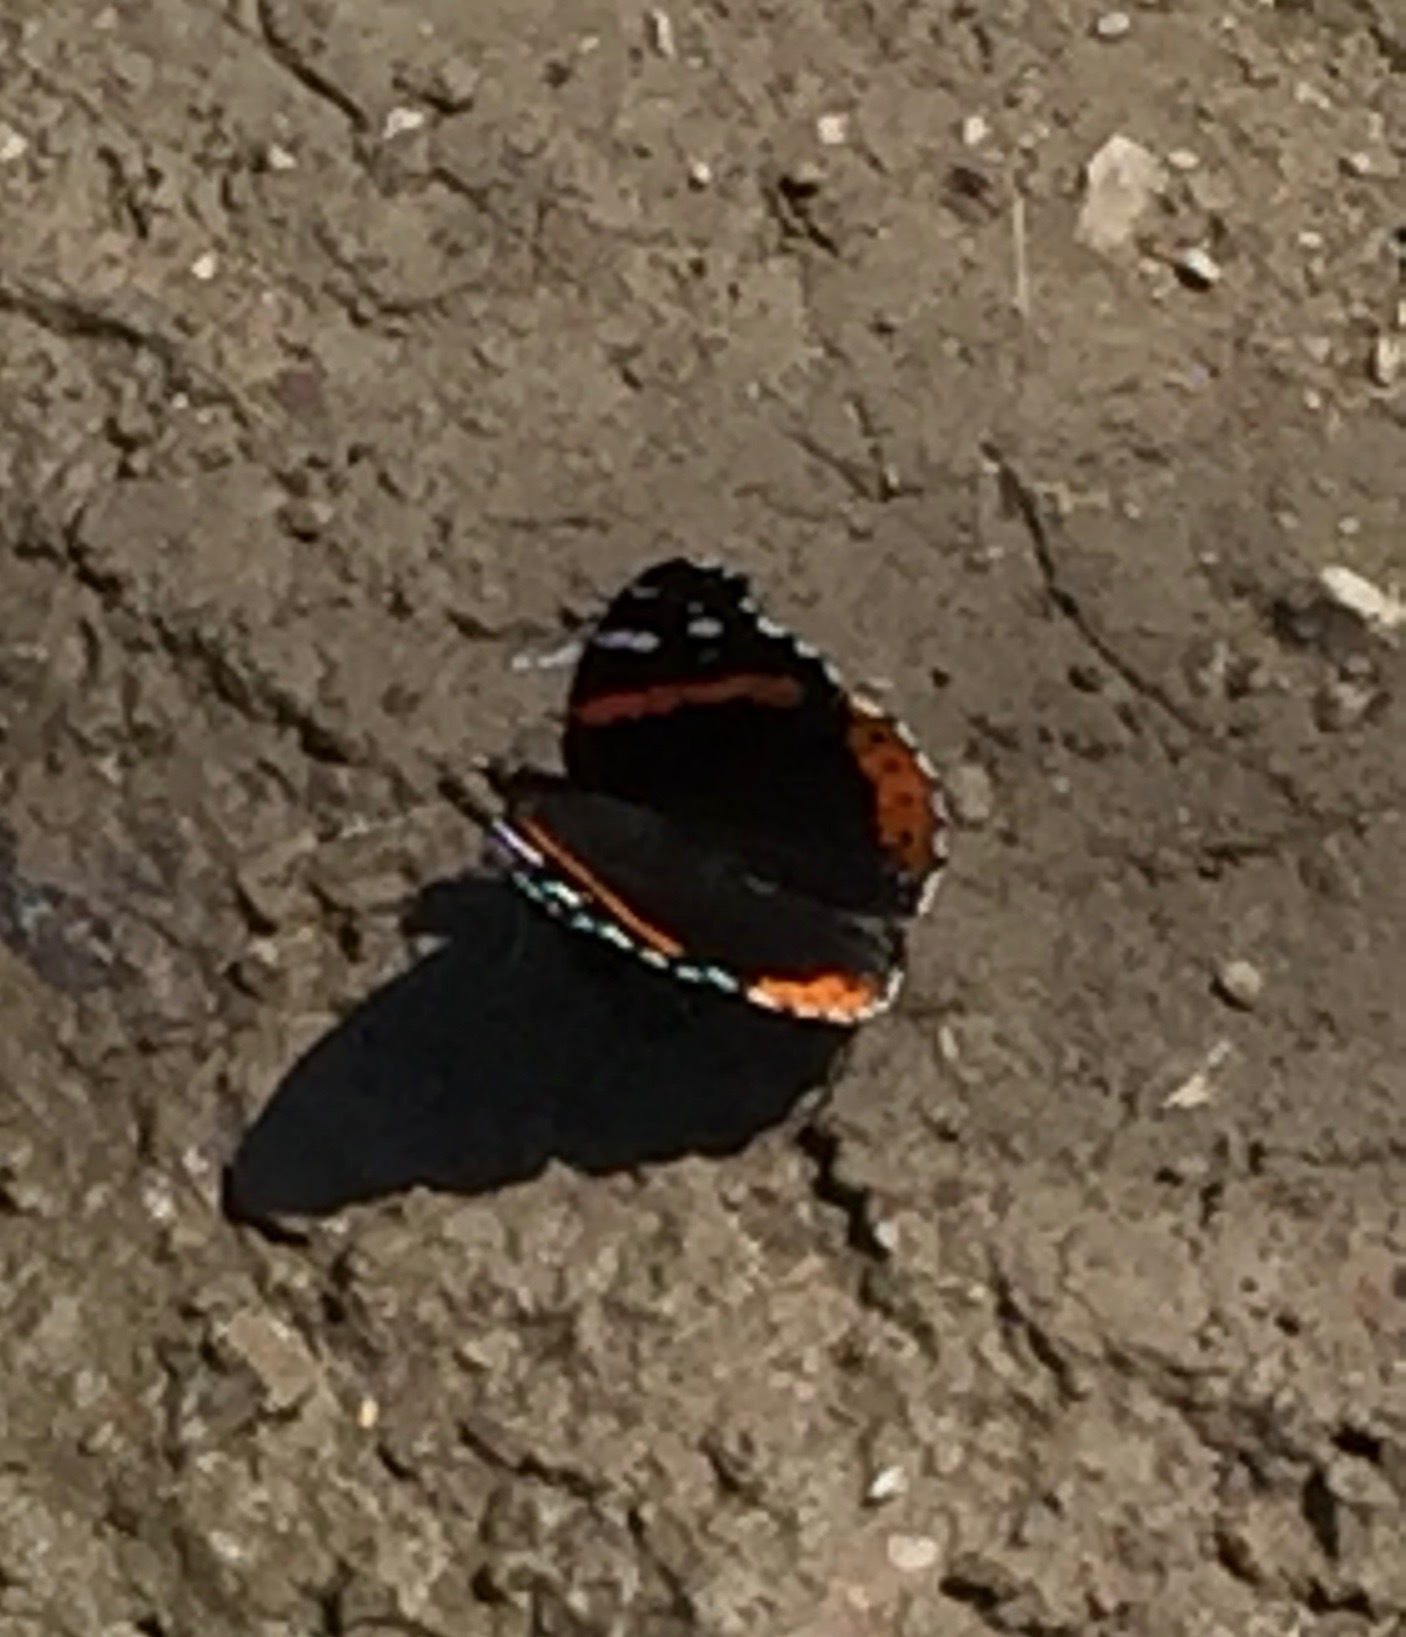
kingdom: Animalia
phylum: Arthropoda
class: Insecta
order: Lepidoptera
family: Nymphalidae
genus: Vanessa
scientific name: Vanessa atalanta
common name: Red admiral
